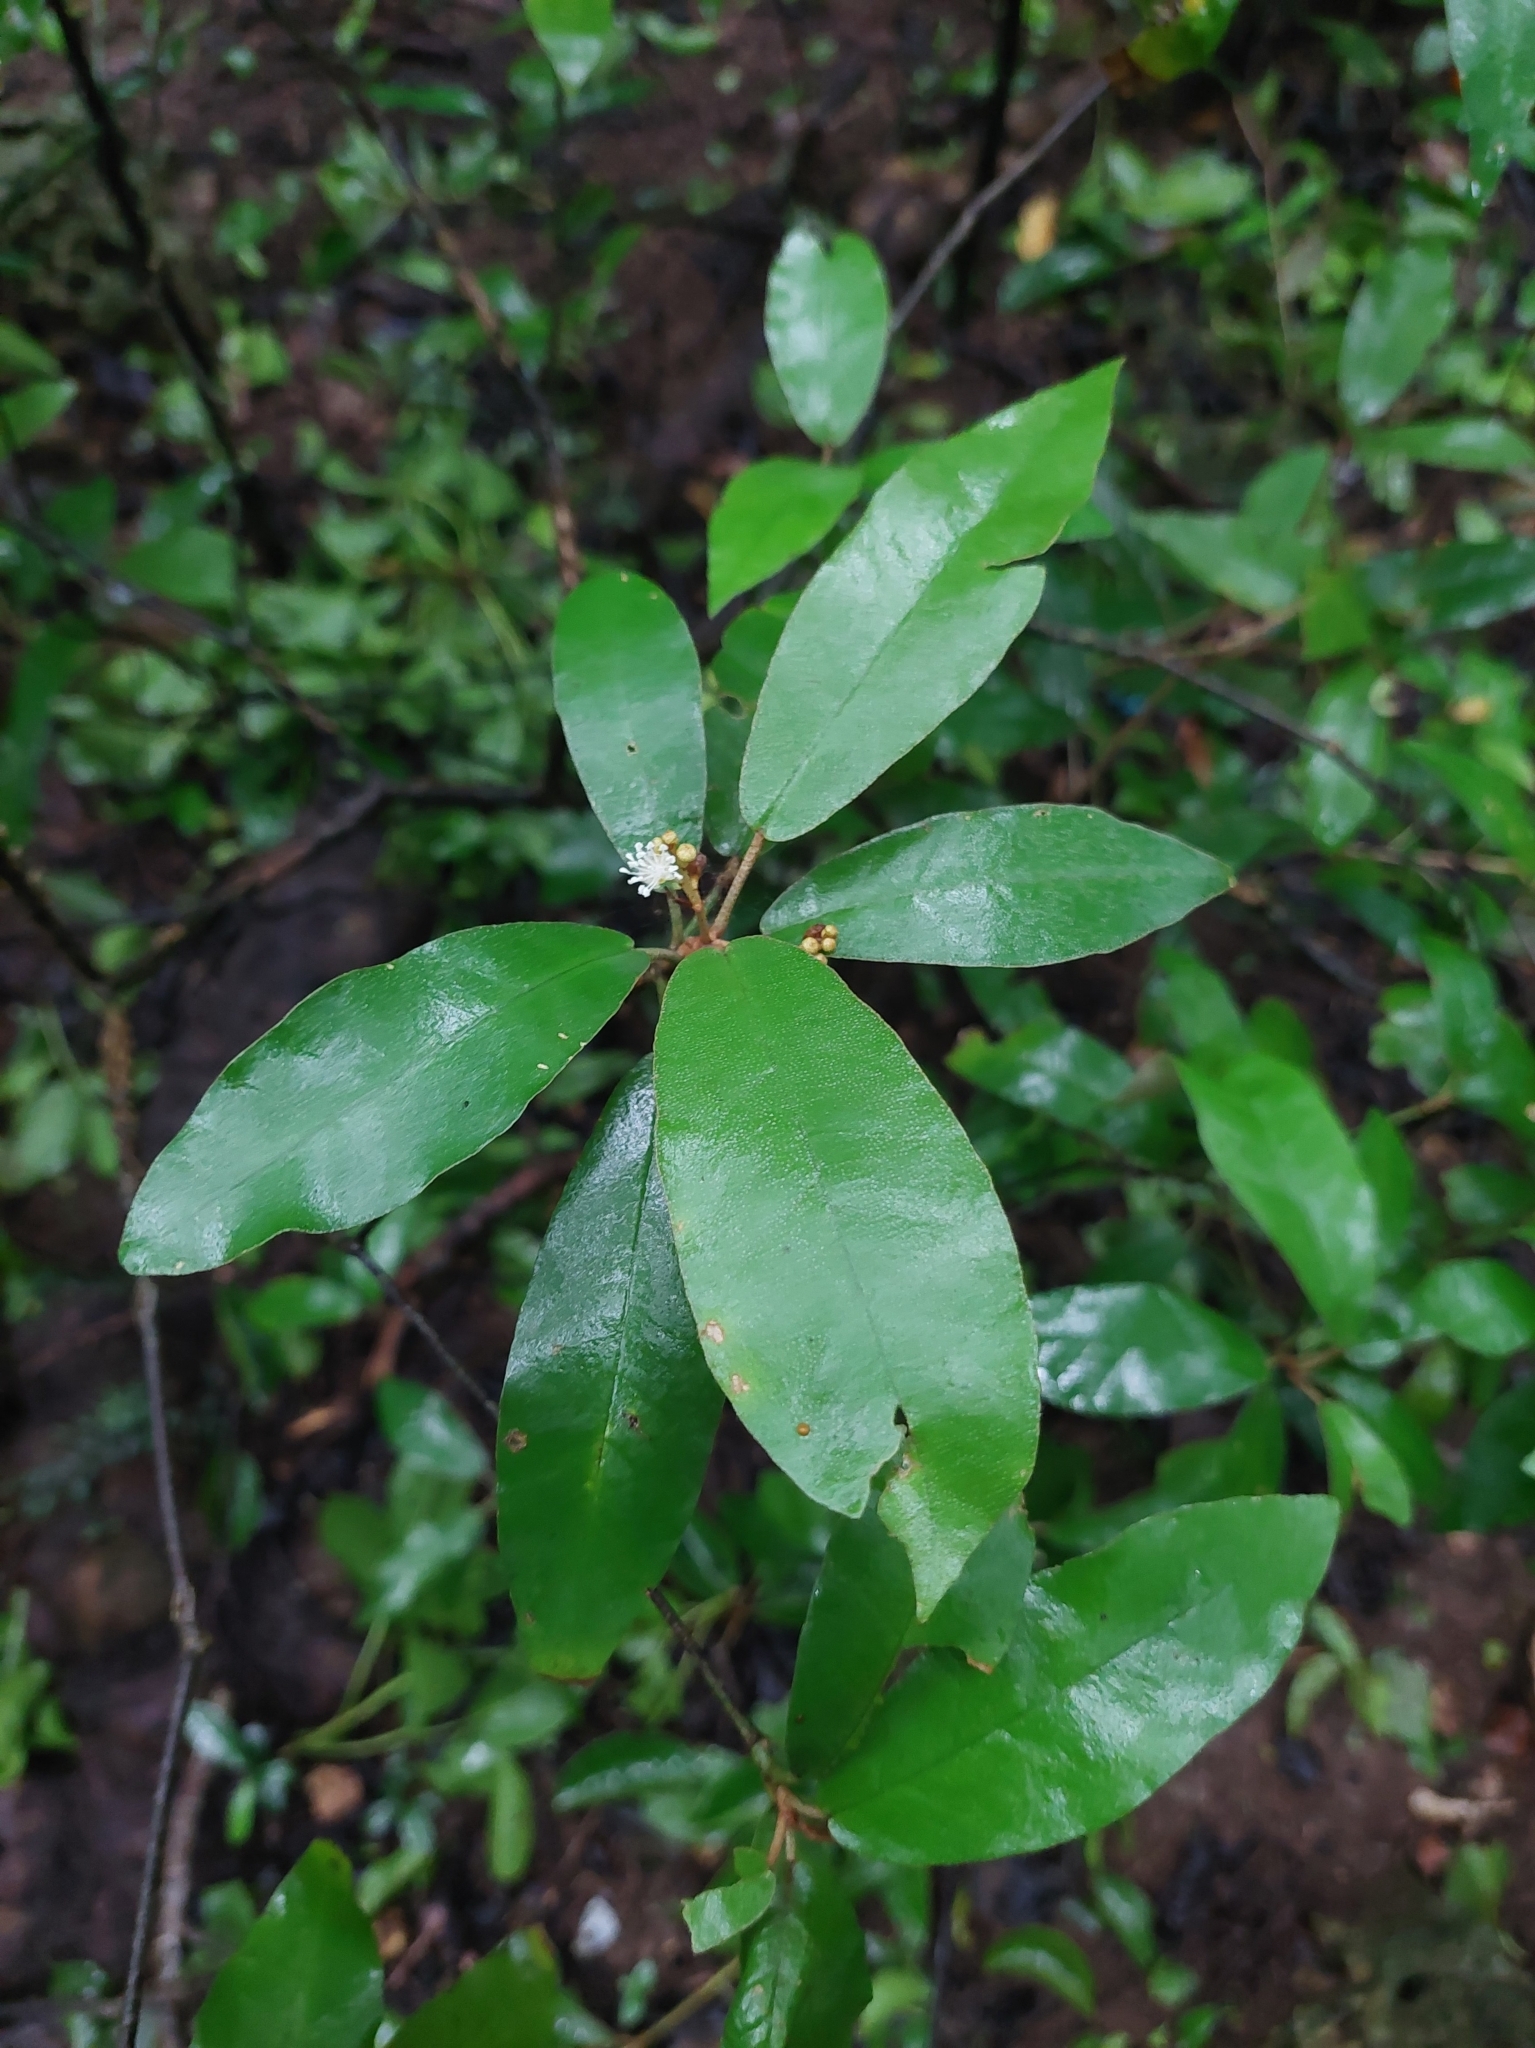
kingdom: Plantae
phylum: Tracheophyta
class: Magnoliopsida
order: Malpighiales
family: Euphorbiaceae
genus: Croton
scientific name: Croton cascarilloides
